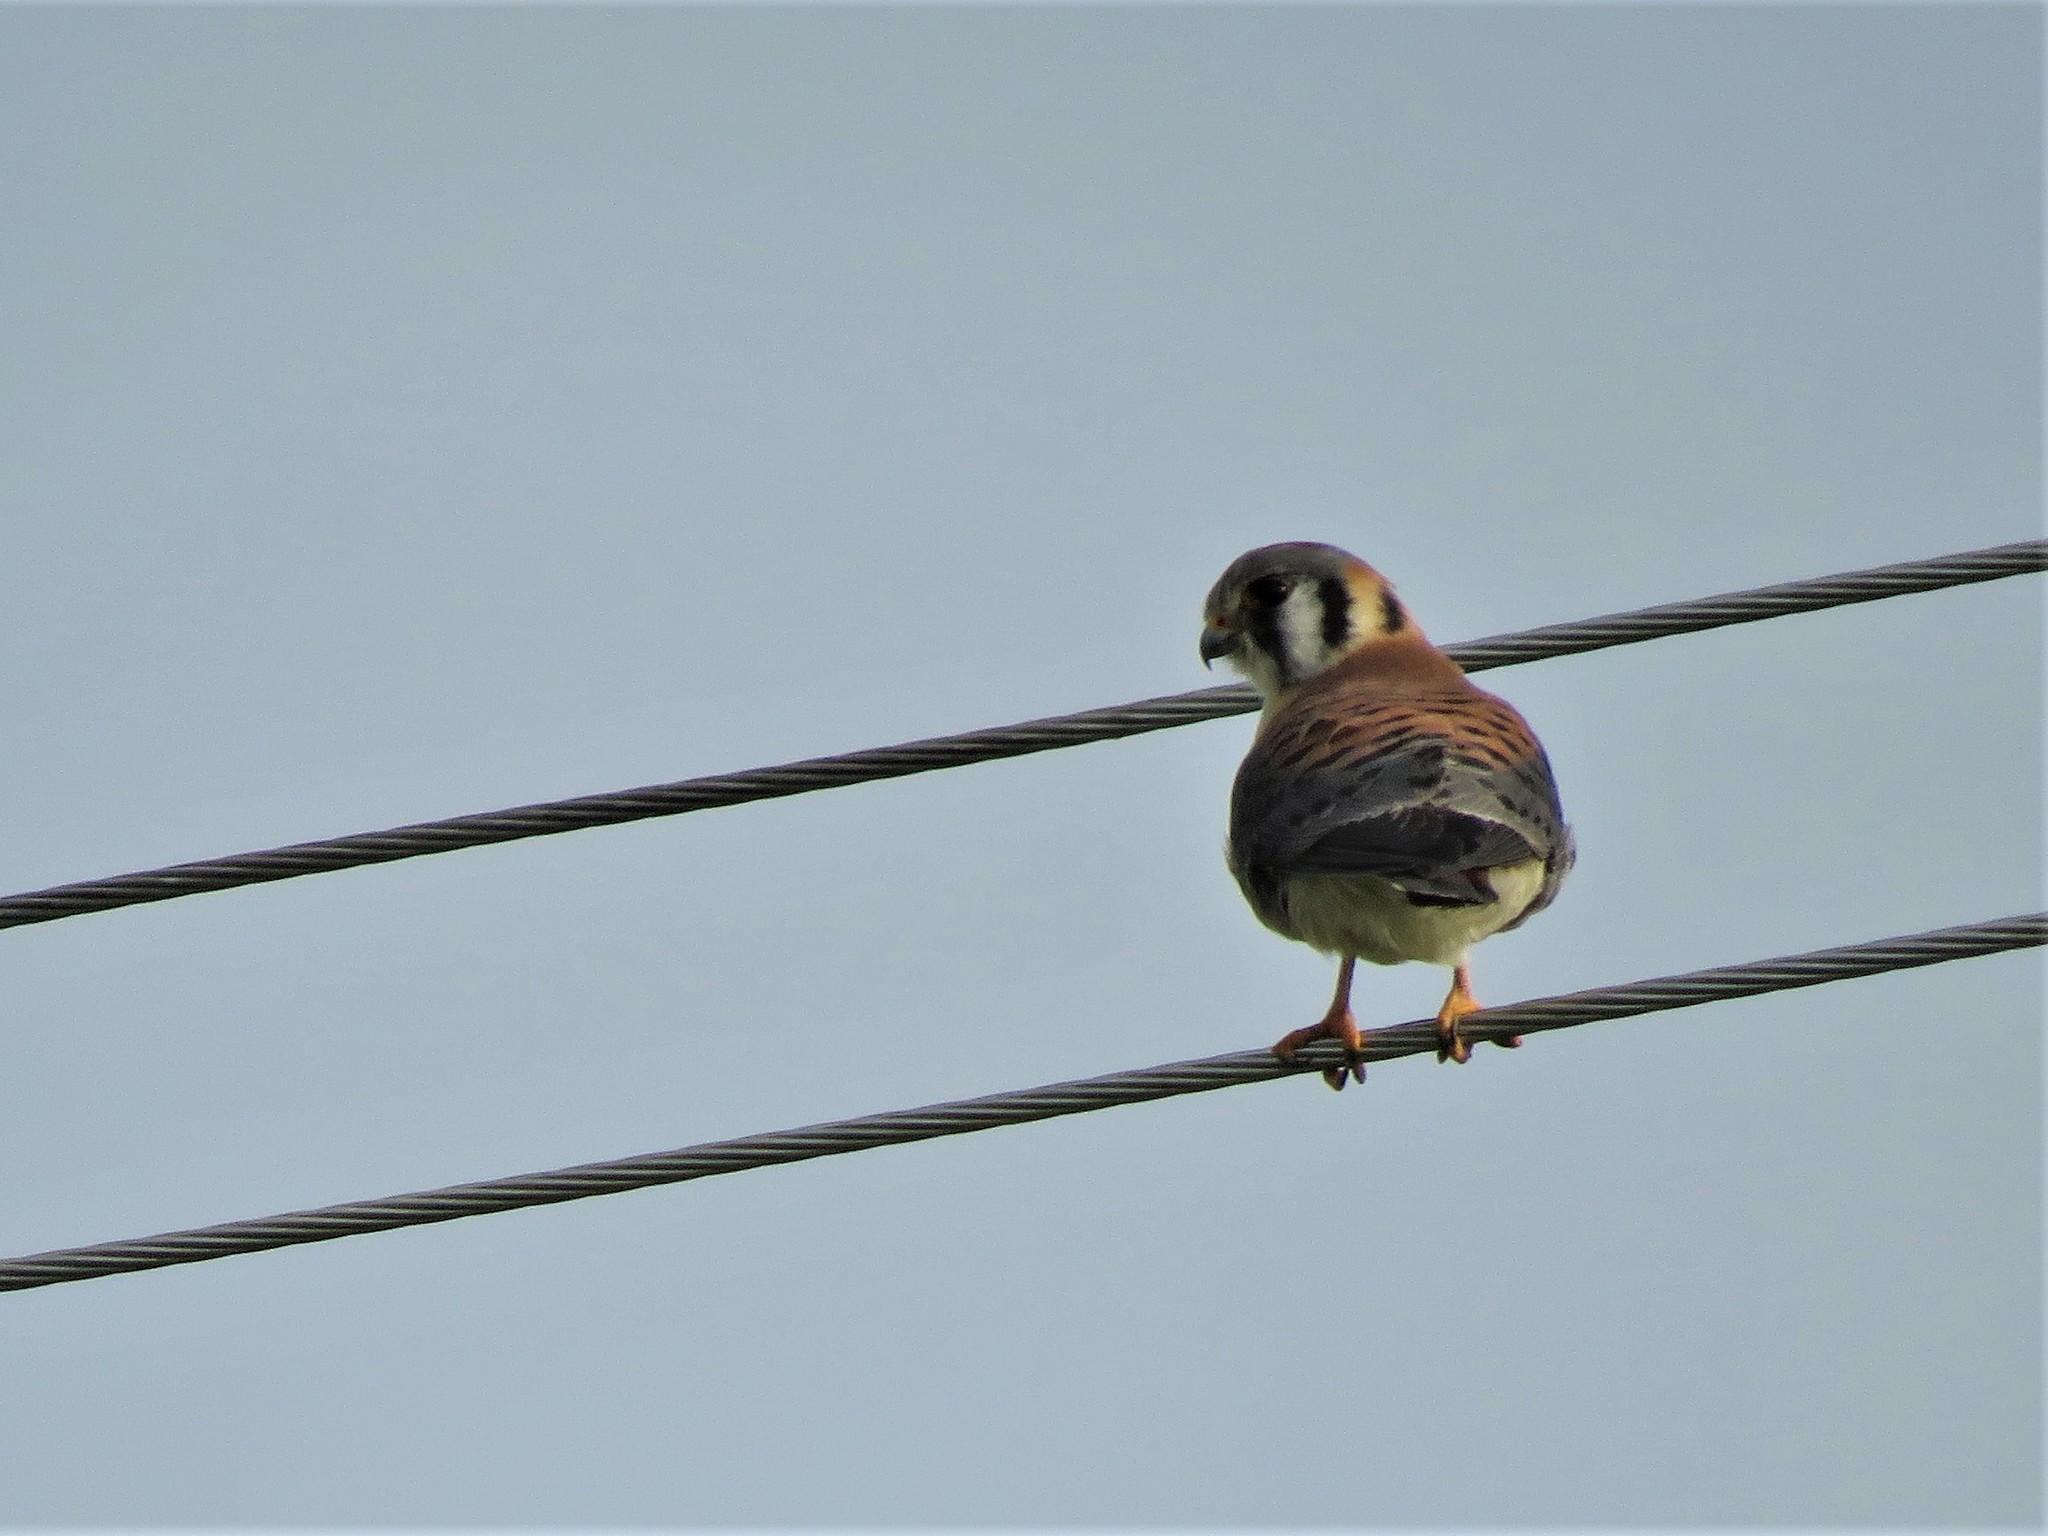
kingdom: Animalia
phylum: Chordata
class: Aves
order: Falconiformes
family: Falconidae
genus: Falco
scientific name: Falco sparverius
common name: American kestrel
